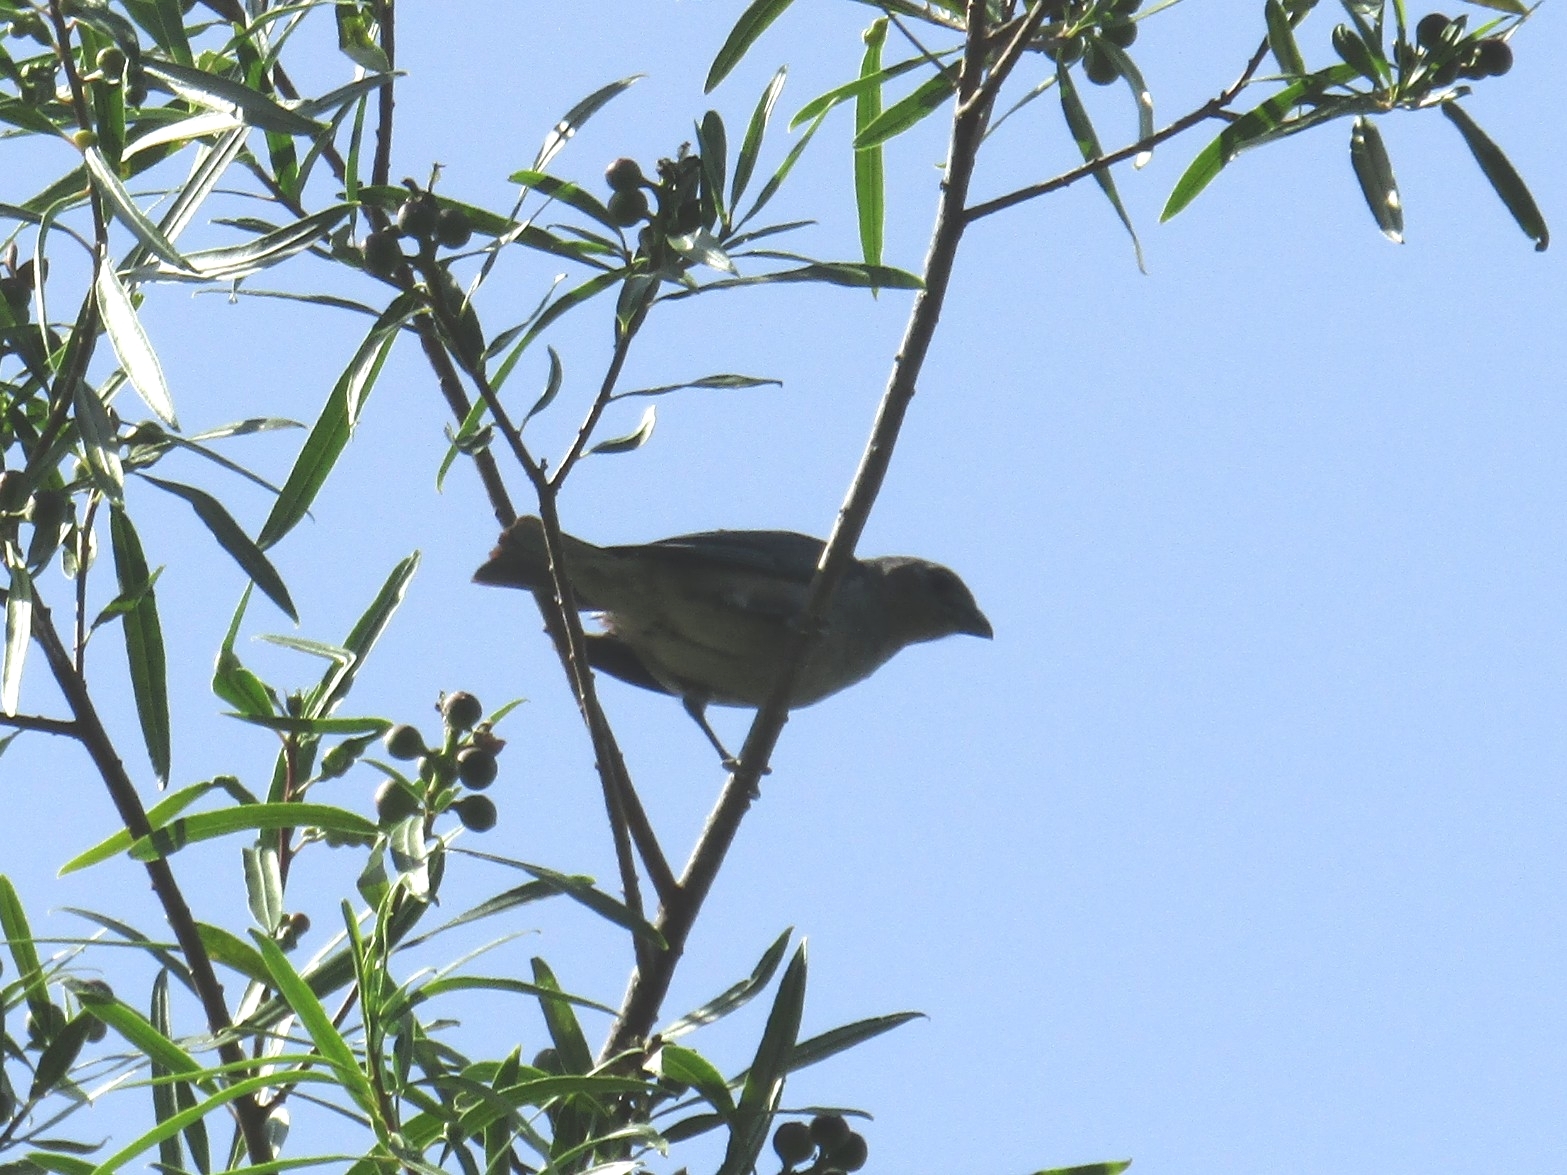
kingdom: Animalia
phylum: Chordata
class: Aves
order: Passeriformes
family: Thraupidae
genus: Thraupis
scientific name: Thraupis sayaca
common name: Sayaca tanager
